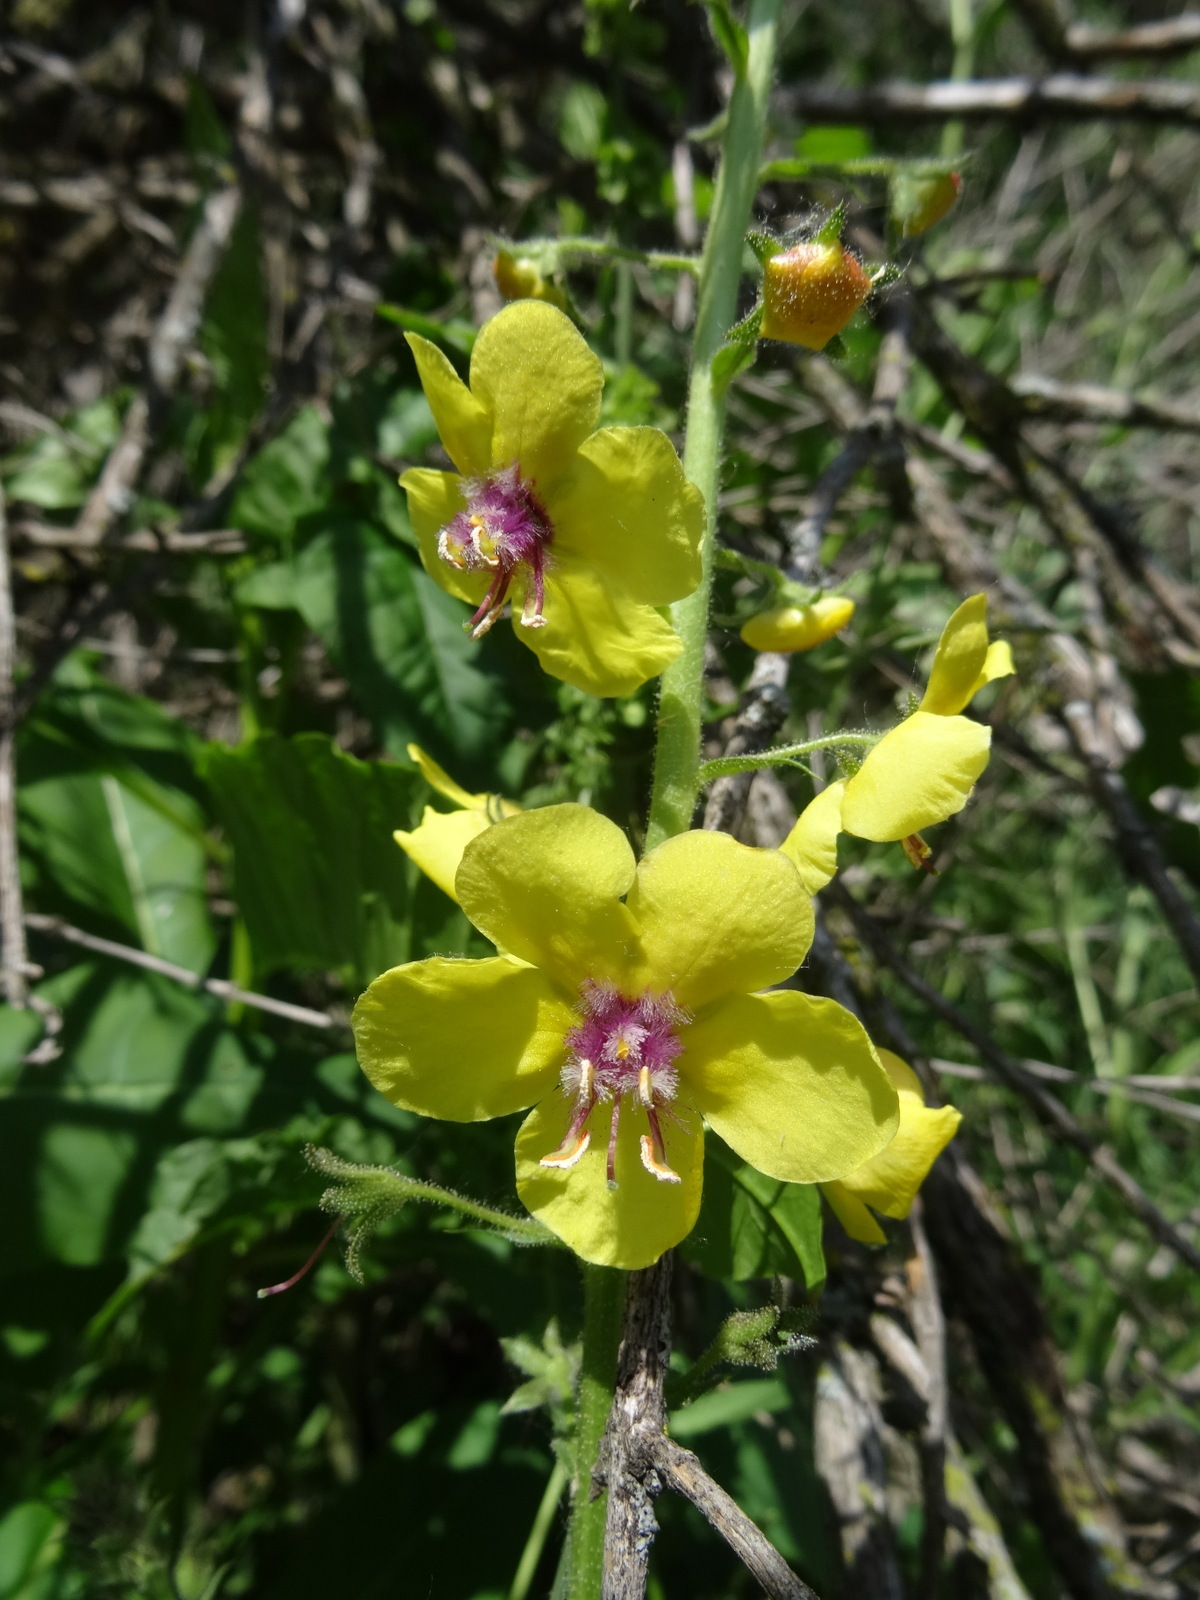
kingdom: Plantae
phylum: Tracheophyta
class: Magnoliopsida
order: Lamiales
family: Scrophulariaceae
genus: Verbascum
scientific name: Verbascum blattaria
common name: Moth mullein
